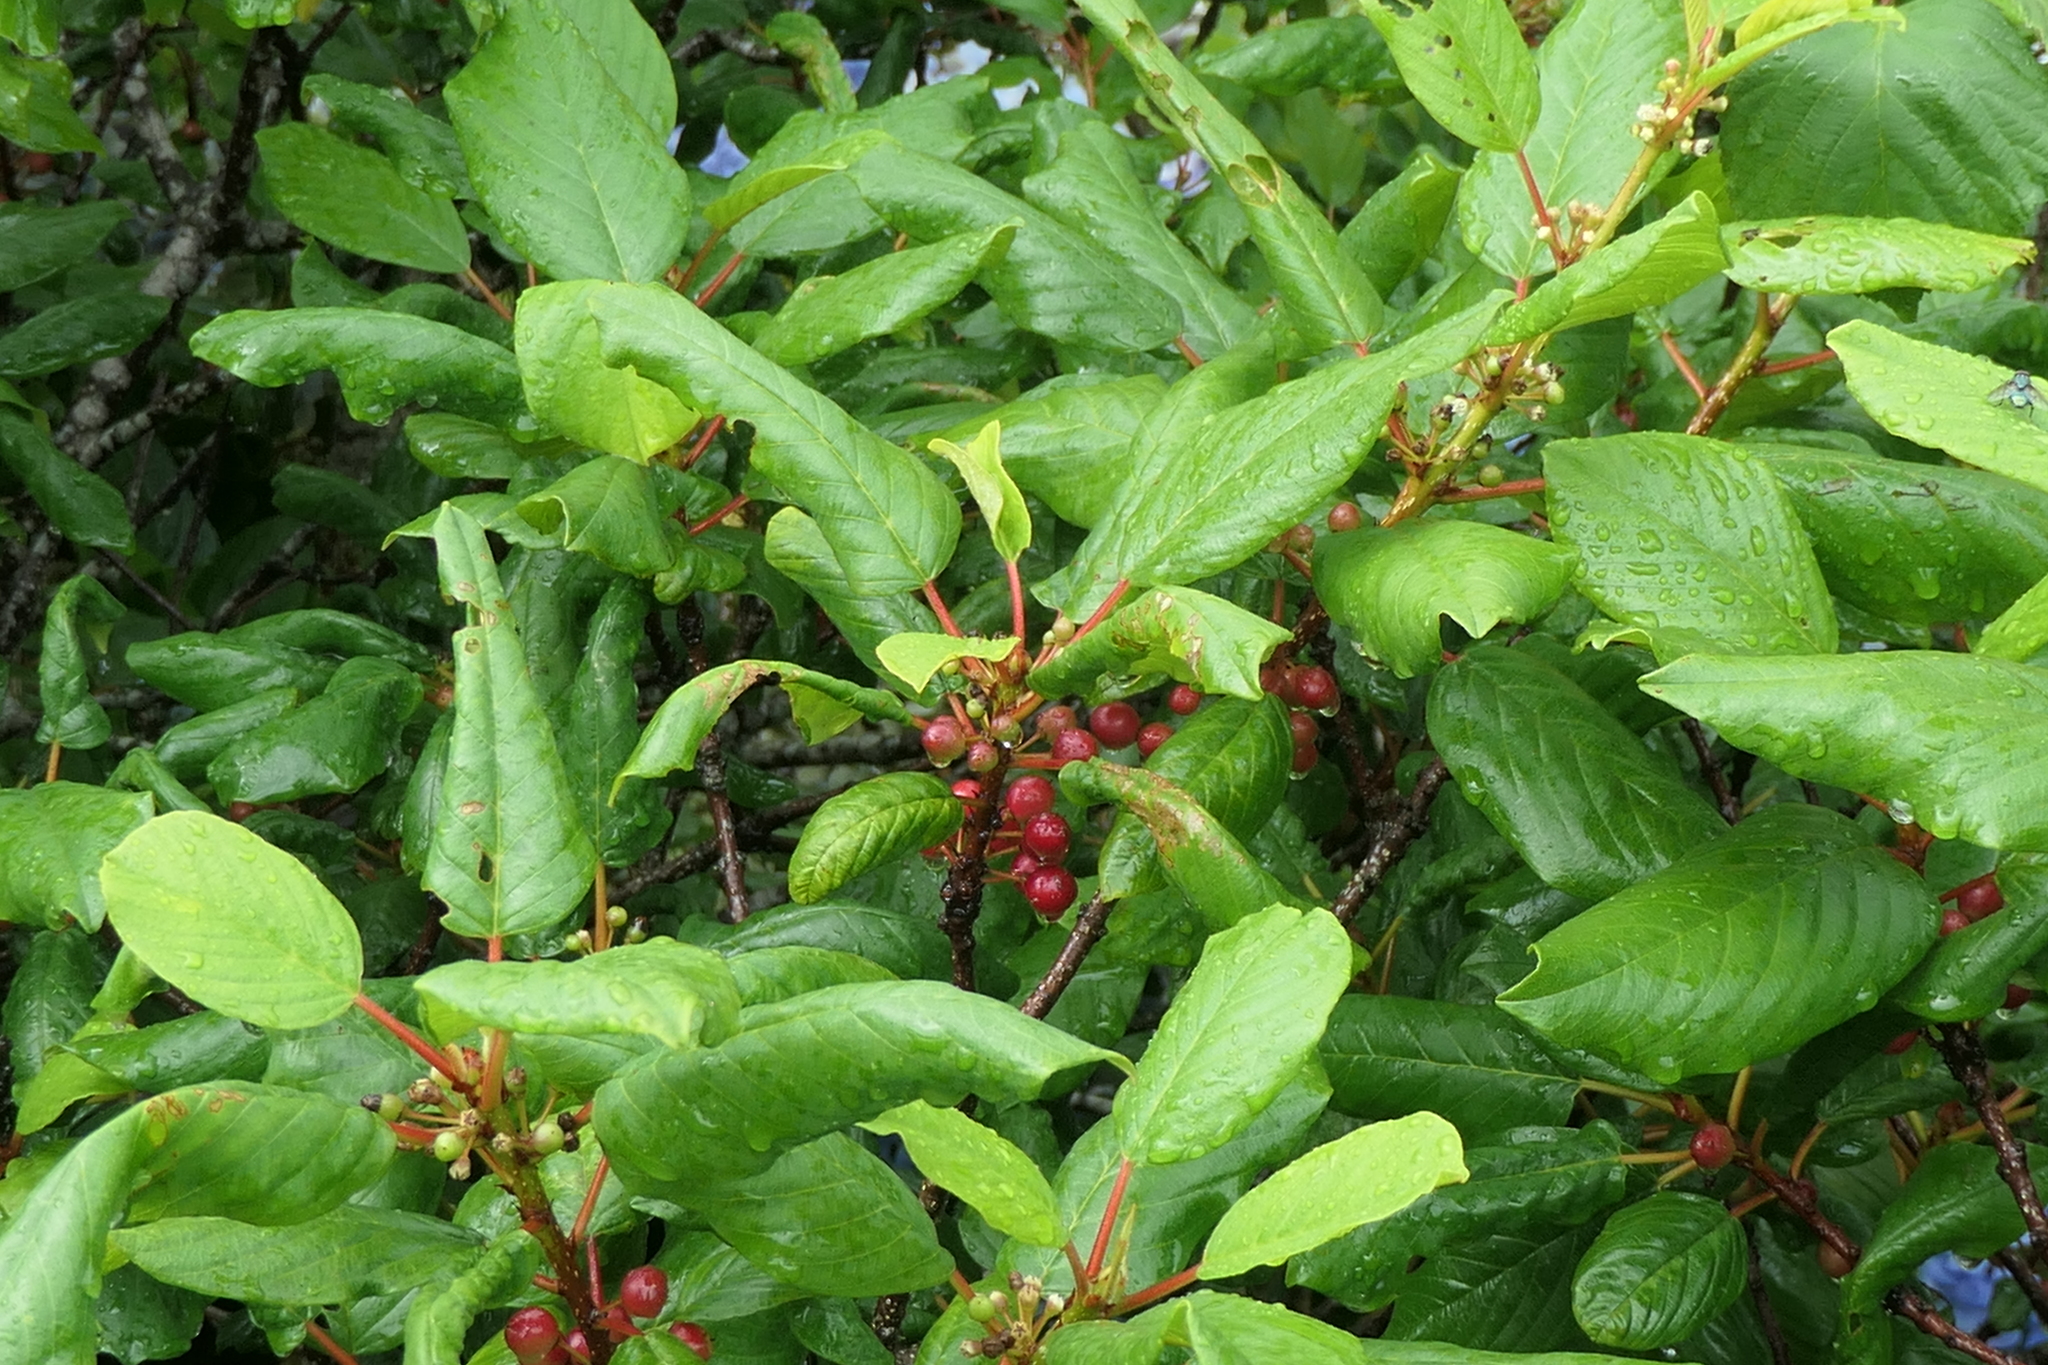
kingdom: Plantae
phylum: Tracheophyta
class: Magnoliopsida
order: Rosales
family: Rhamnaceae
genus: Frangula
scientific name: Frangula azorica
